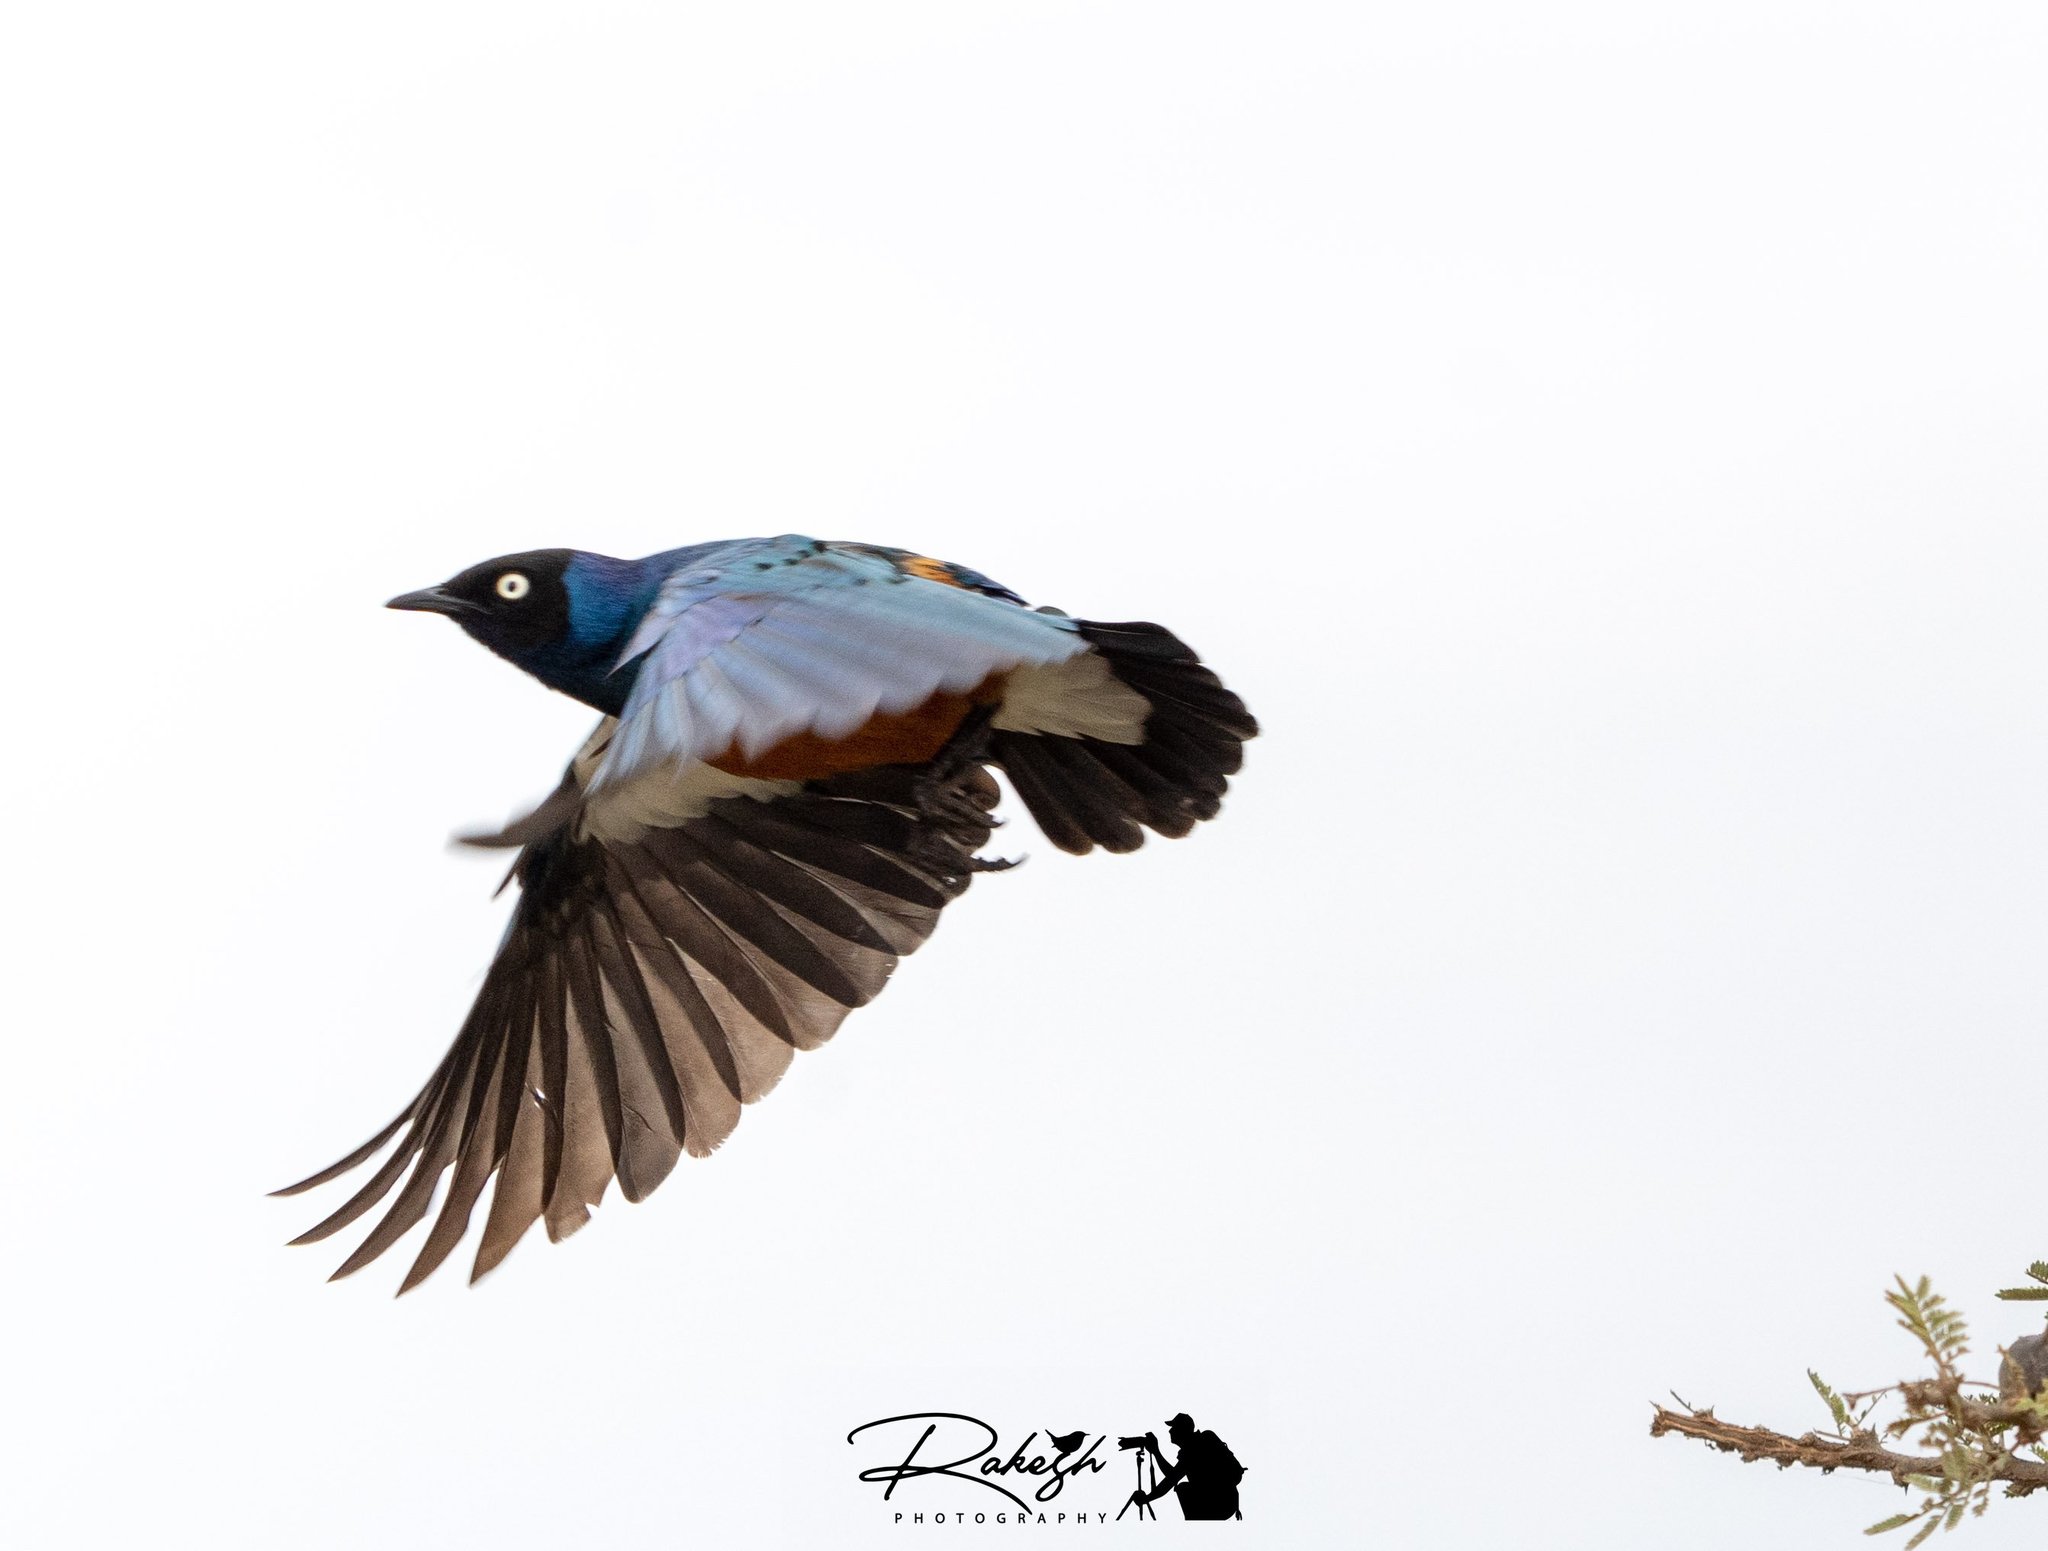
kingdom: Animalia
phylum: Chordata
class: Aves
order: Passeriformes
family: Sturnidae
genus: Lamprotornis
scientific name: Lamprotornis superbus
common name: Superb starling
